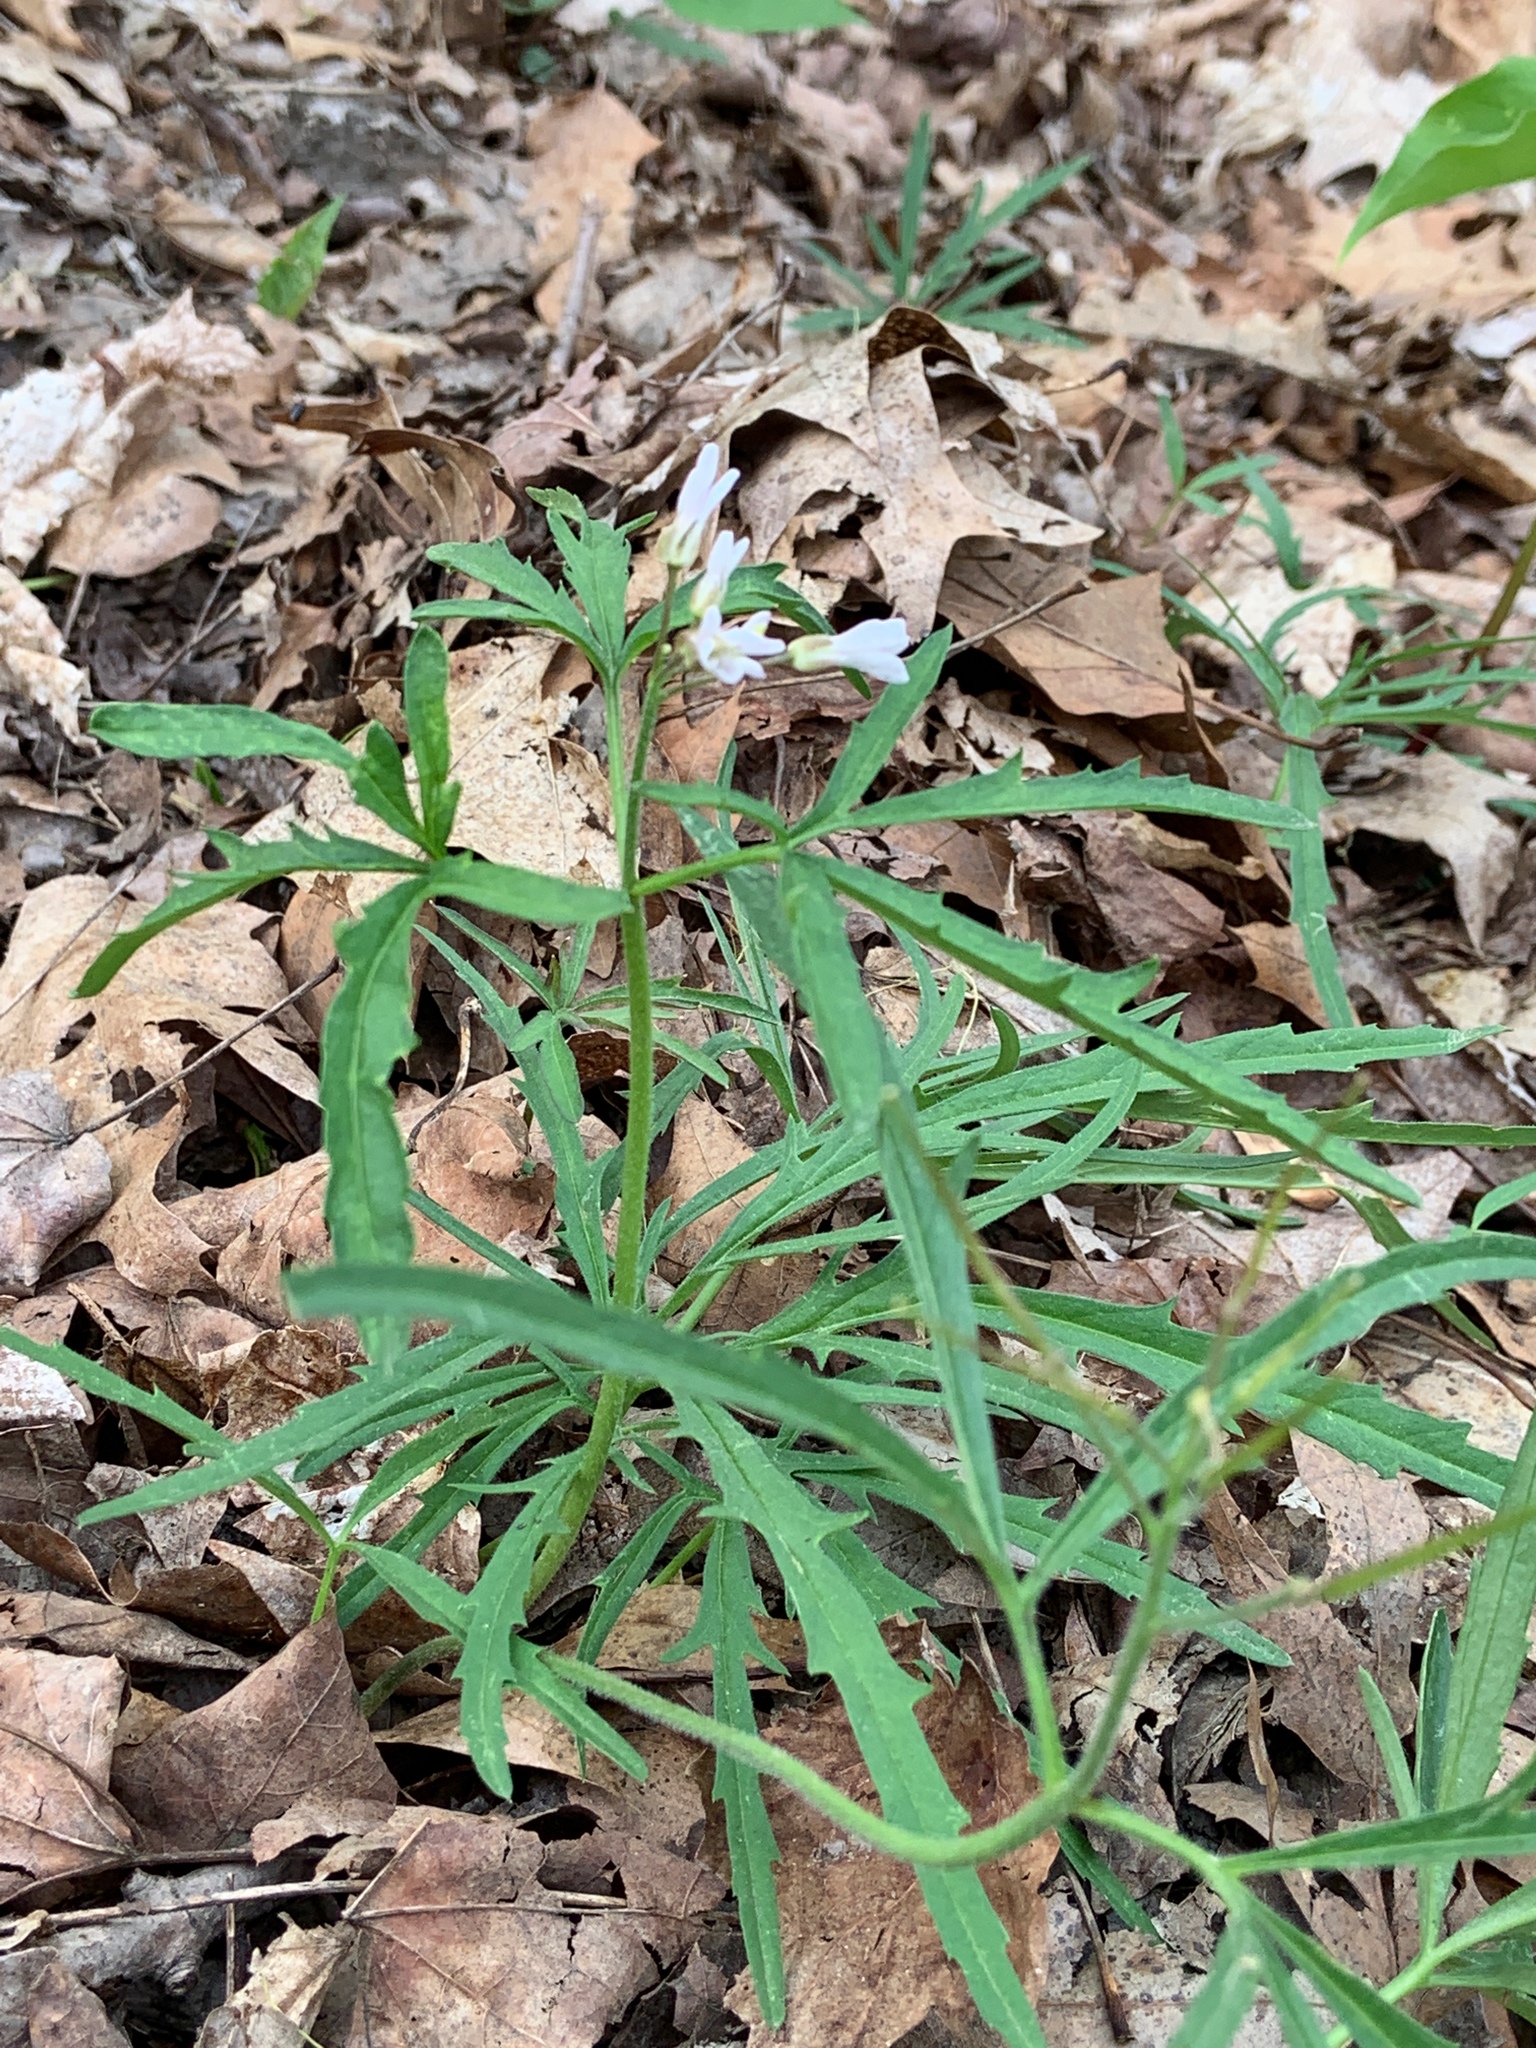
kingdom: Plantae
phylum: Tracheophyta
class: Magnoliopsida
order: Brassicales
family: Brassicaceae
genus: Cardamine
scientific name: Cardamine concatenata
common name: Cut-leaf toothcup
